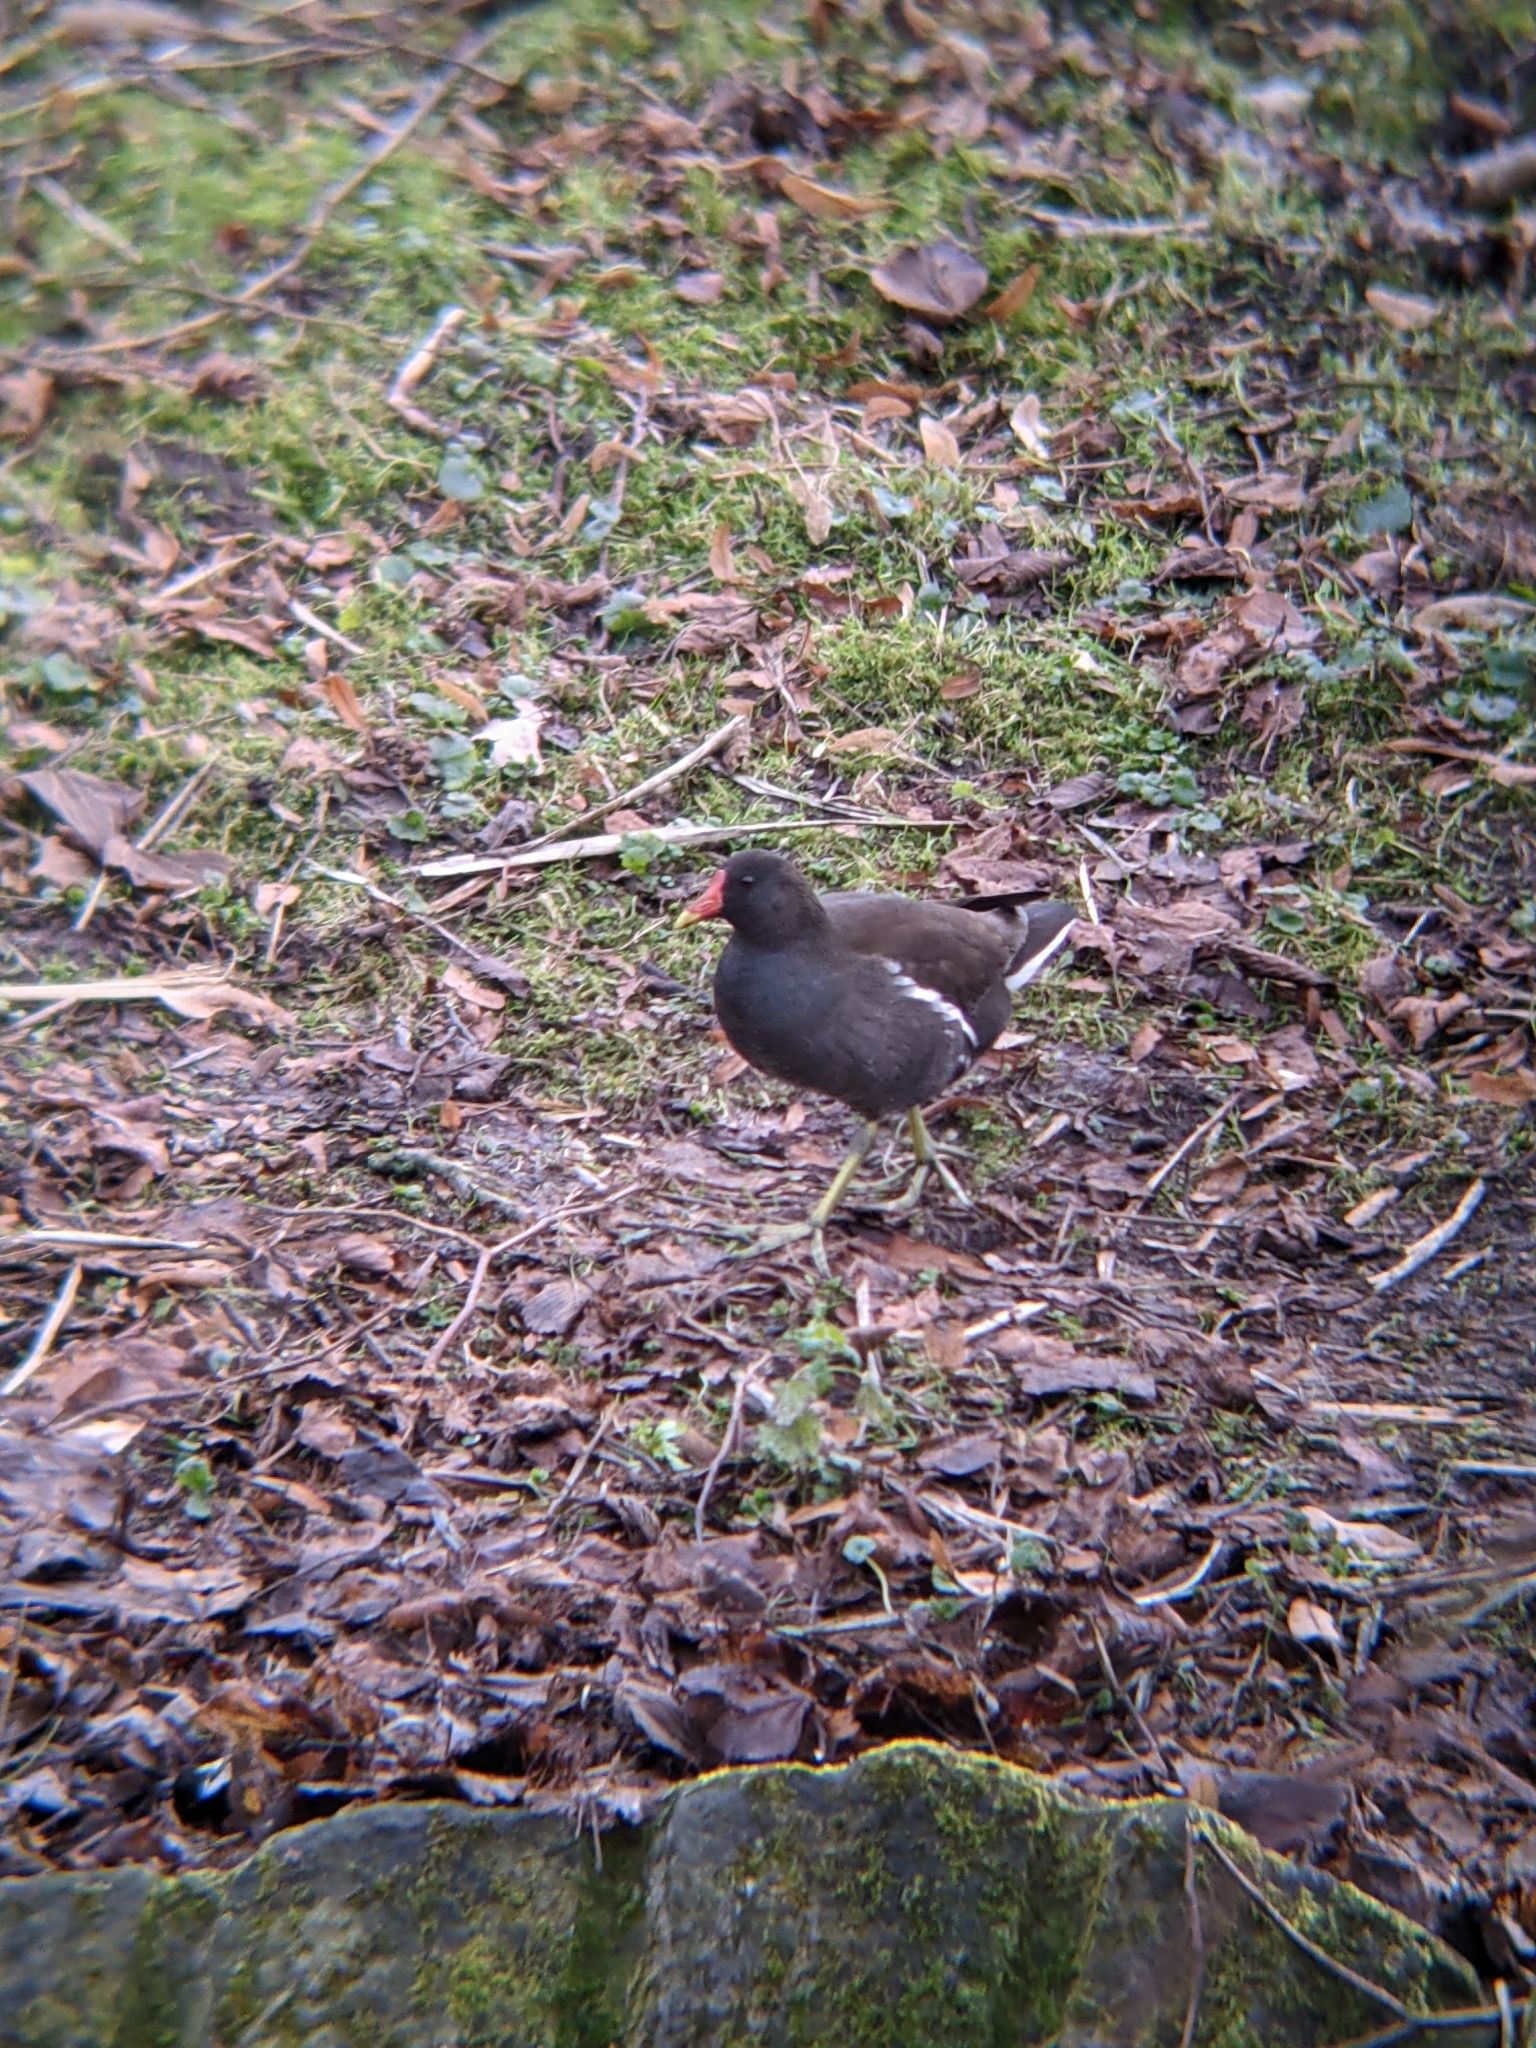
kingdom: Animalia
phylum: Chordata
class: Aves
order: Gruiformes
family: Rallidae
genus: Gallinula
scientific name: Gallinula chloropus
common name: Common moorhen
